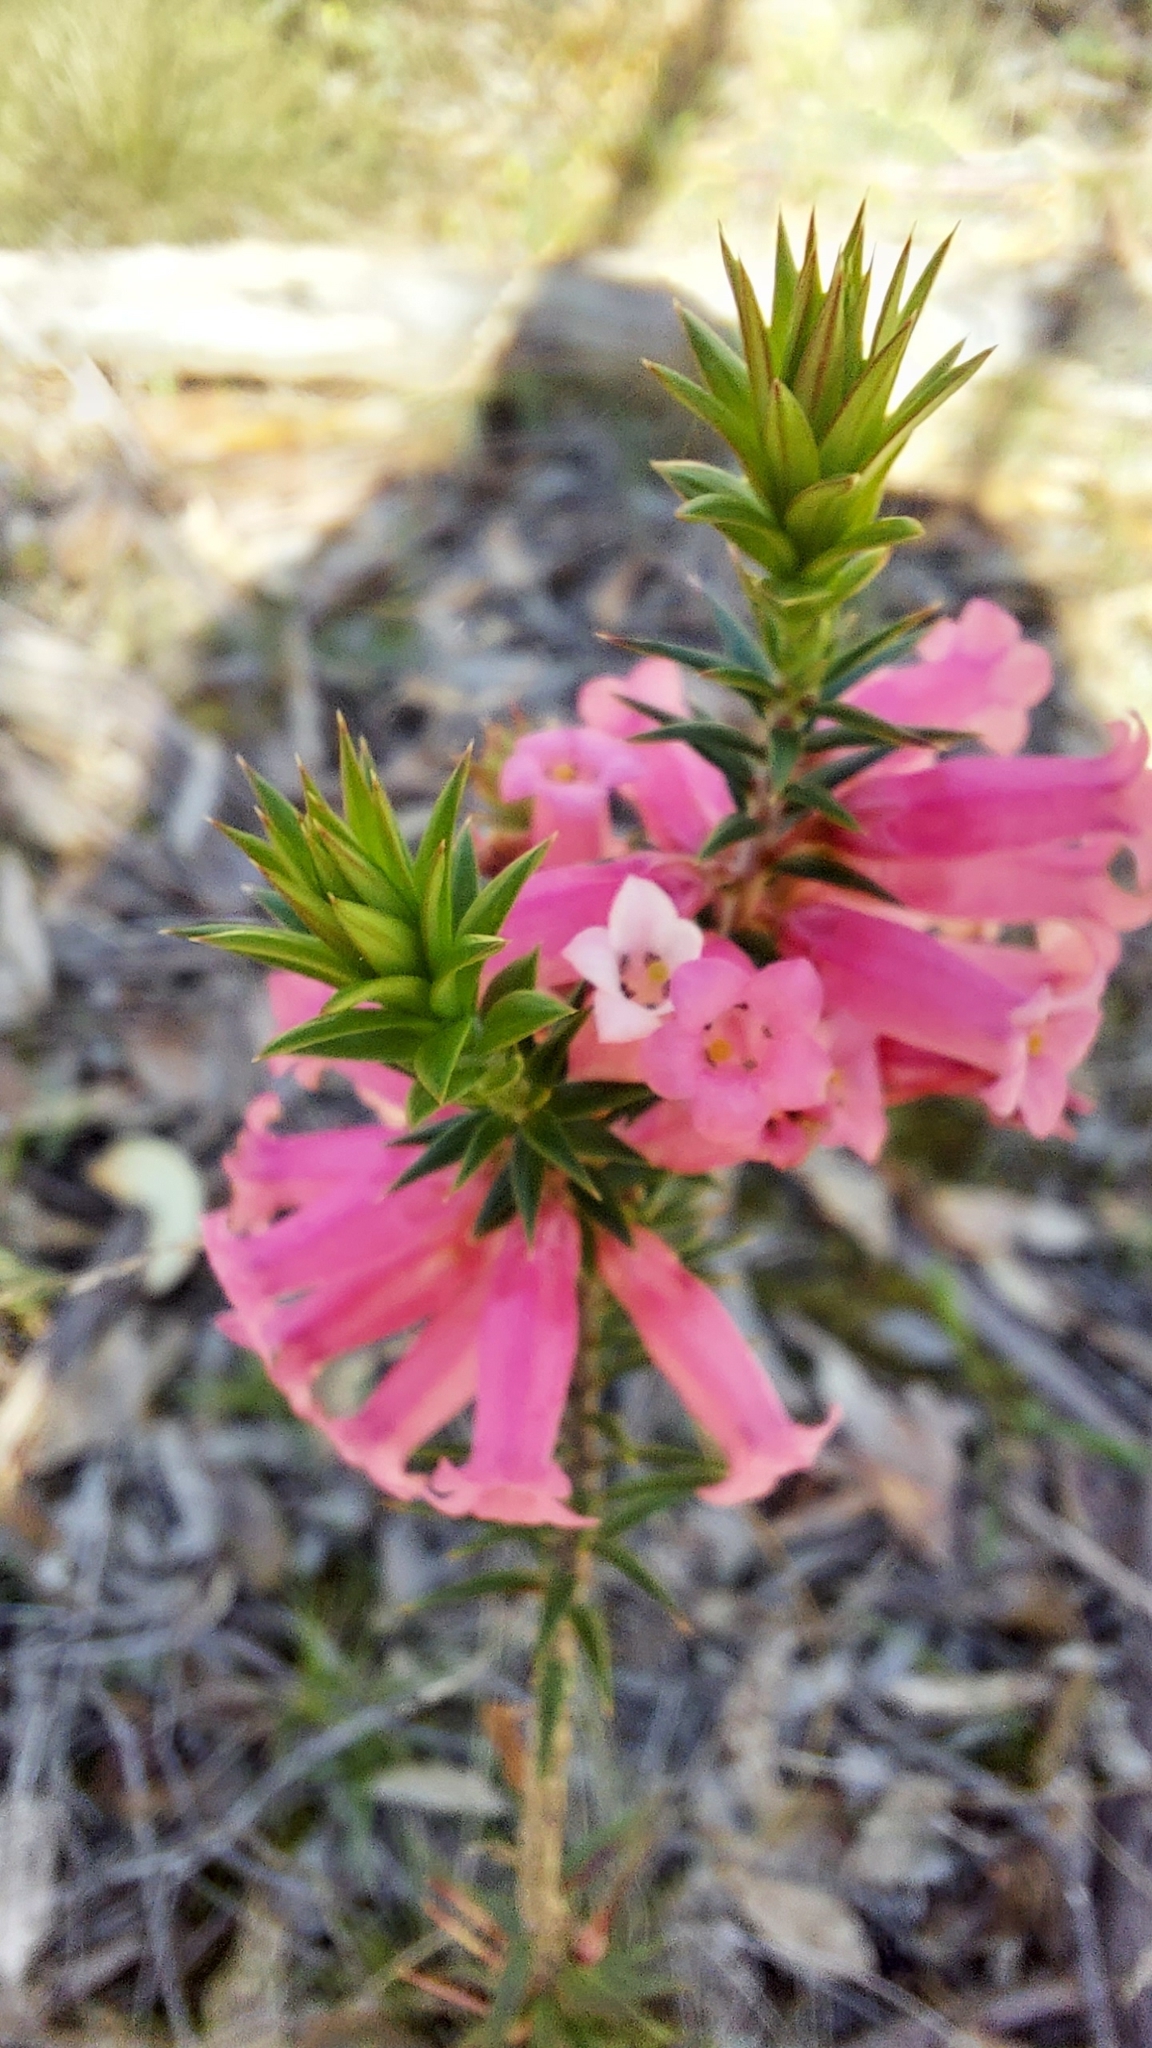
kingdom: Plantae
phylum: Tracheophyta
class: Magnoliopsida
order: Ericales
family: Ericaceae
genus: Epacris
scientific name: Epacris impressa
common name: Common-heath
